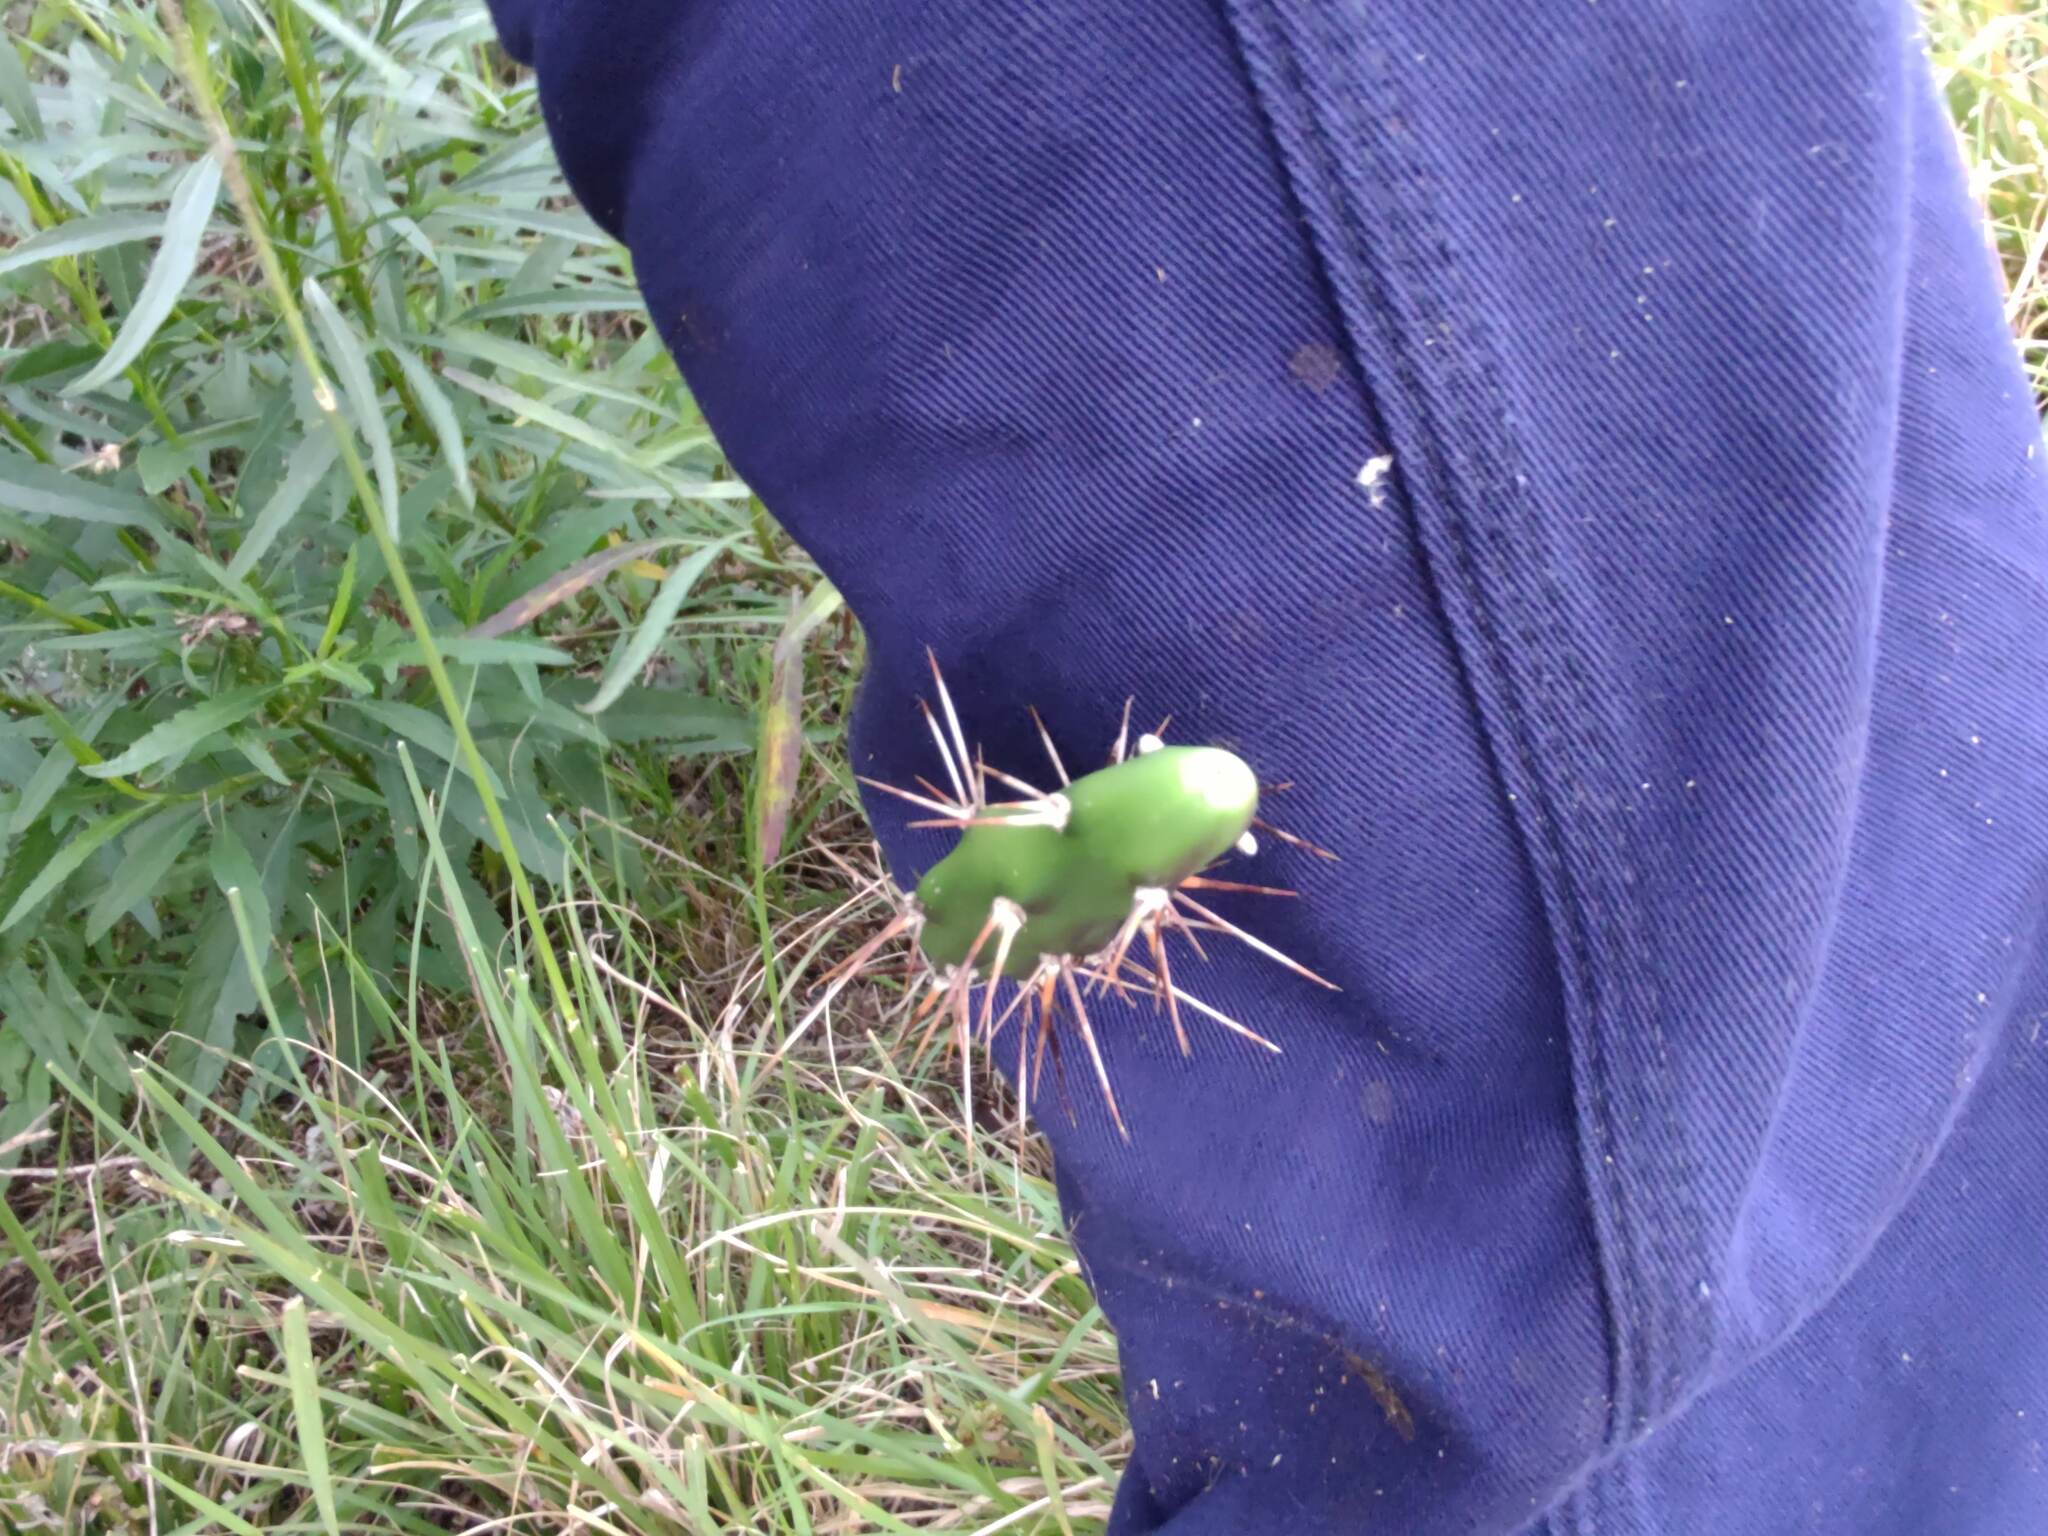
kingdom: Plantae
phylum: Tracheophyta
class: Magnoliopsida
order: Caryophyllales
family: Cactaceae
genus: Opuntia
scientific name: Opuntia aurantiaca
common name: Jointed pricklypear
